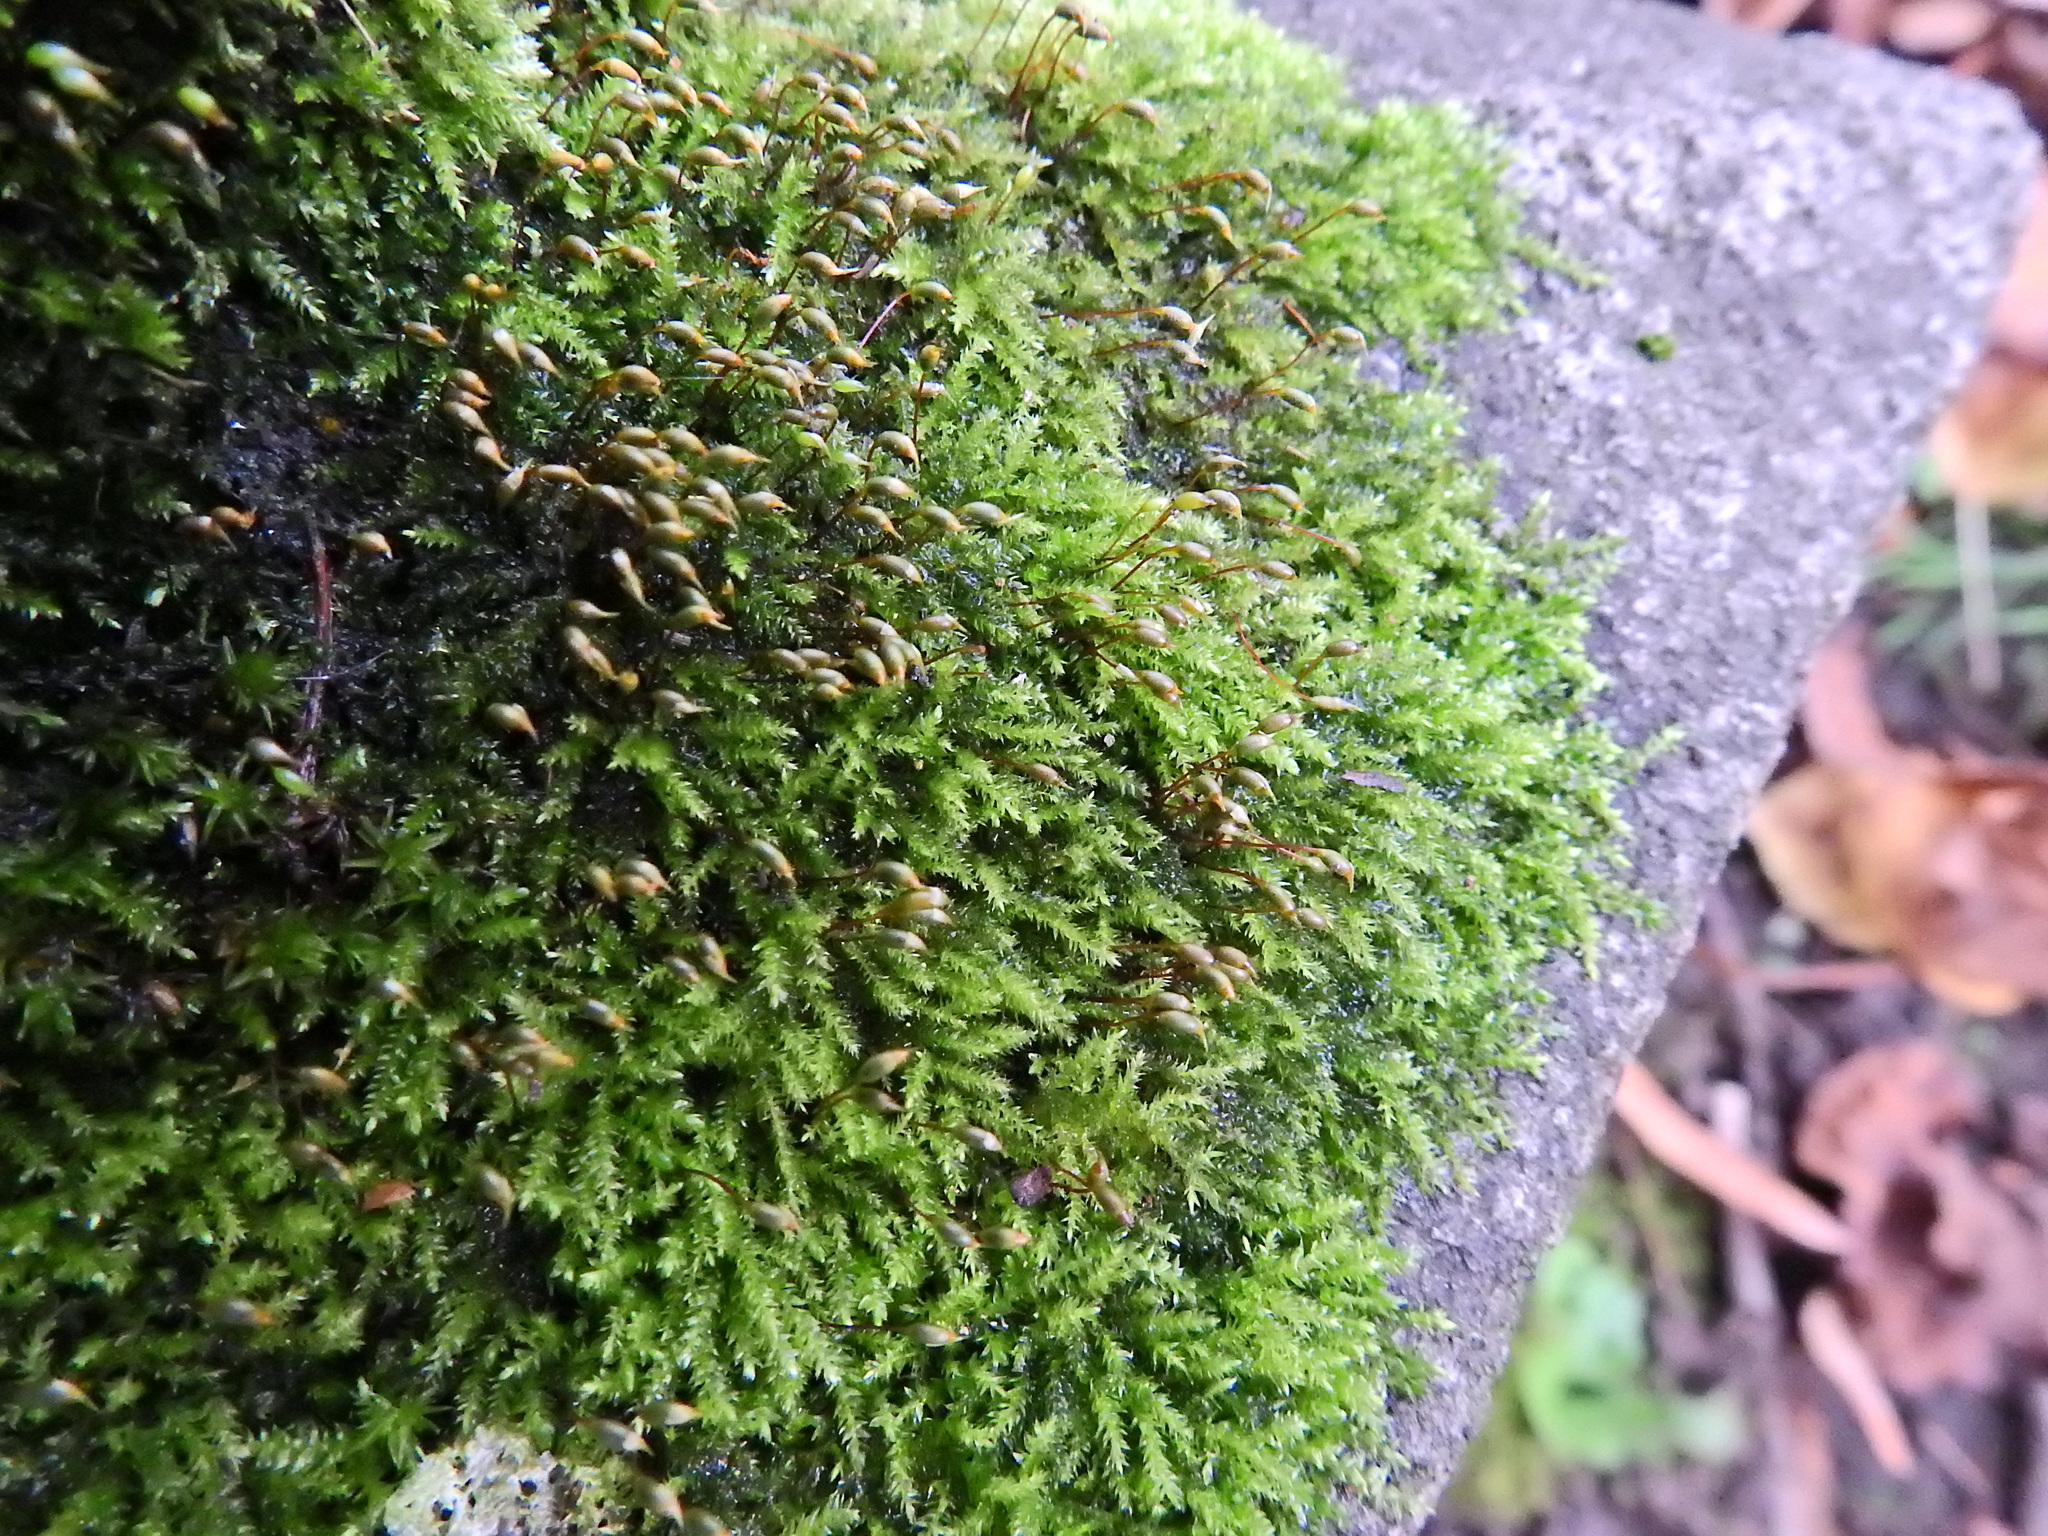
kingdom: Plantae
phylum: Bryophyta
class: Bryopsida
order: Hypnales
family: Brachytheciaceae
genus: Rhynchostegium
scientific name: Rhynchostegium confertum
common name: Clustered feather-moss
